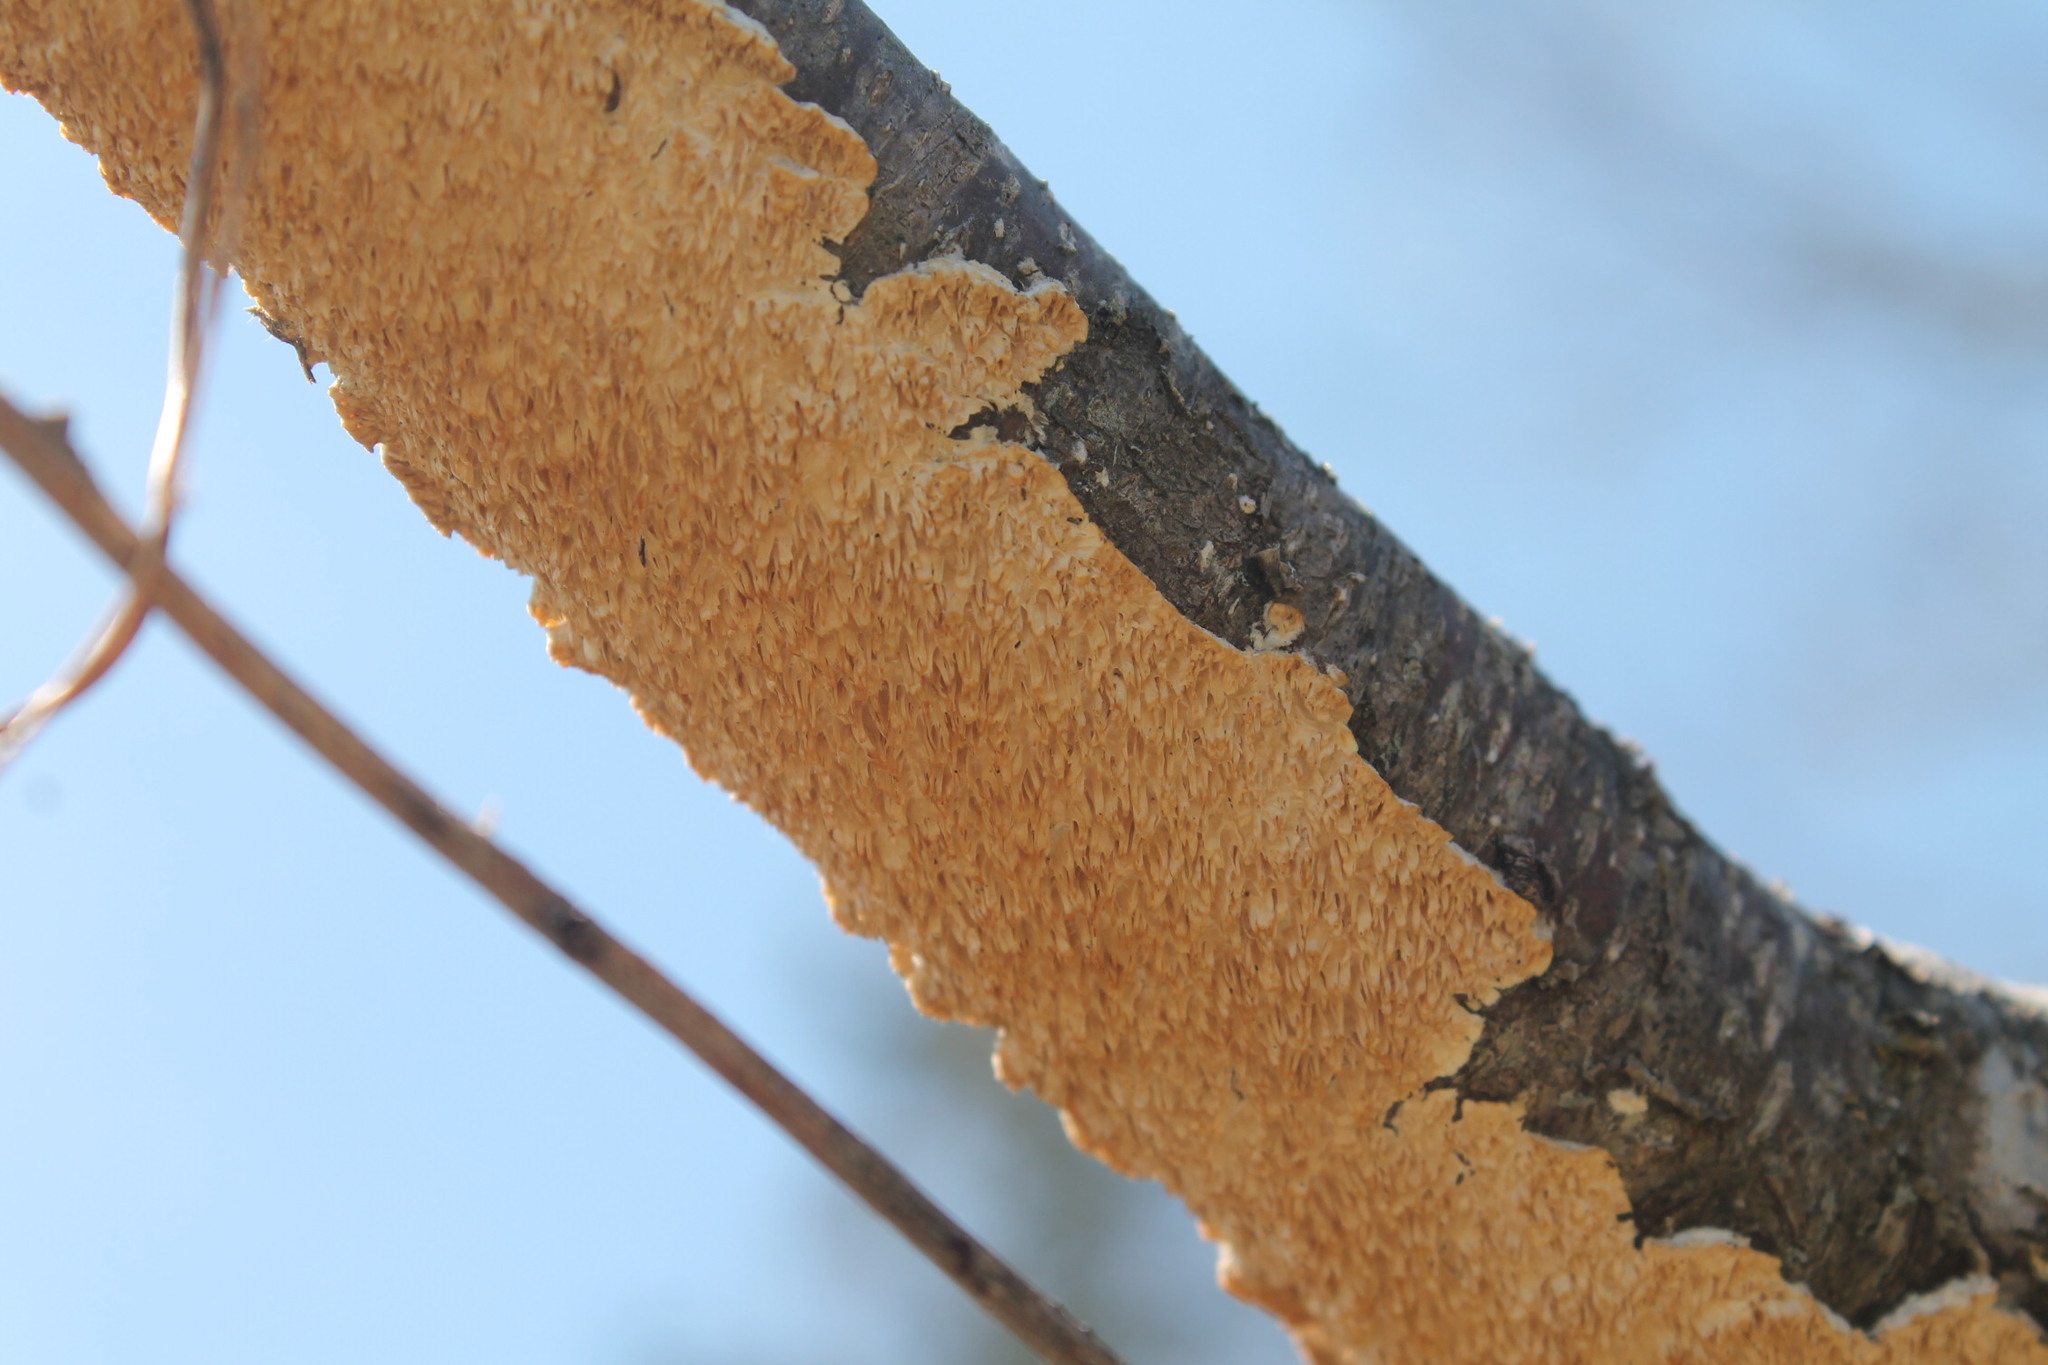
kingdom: Fungi
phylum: Basidiomycota
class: Agaricomycetes
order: Polyporales
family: Irpicaceae
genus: Irpex
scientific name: Irpex lacteus
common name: Milk-white toothed polypore
